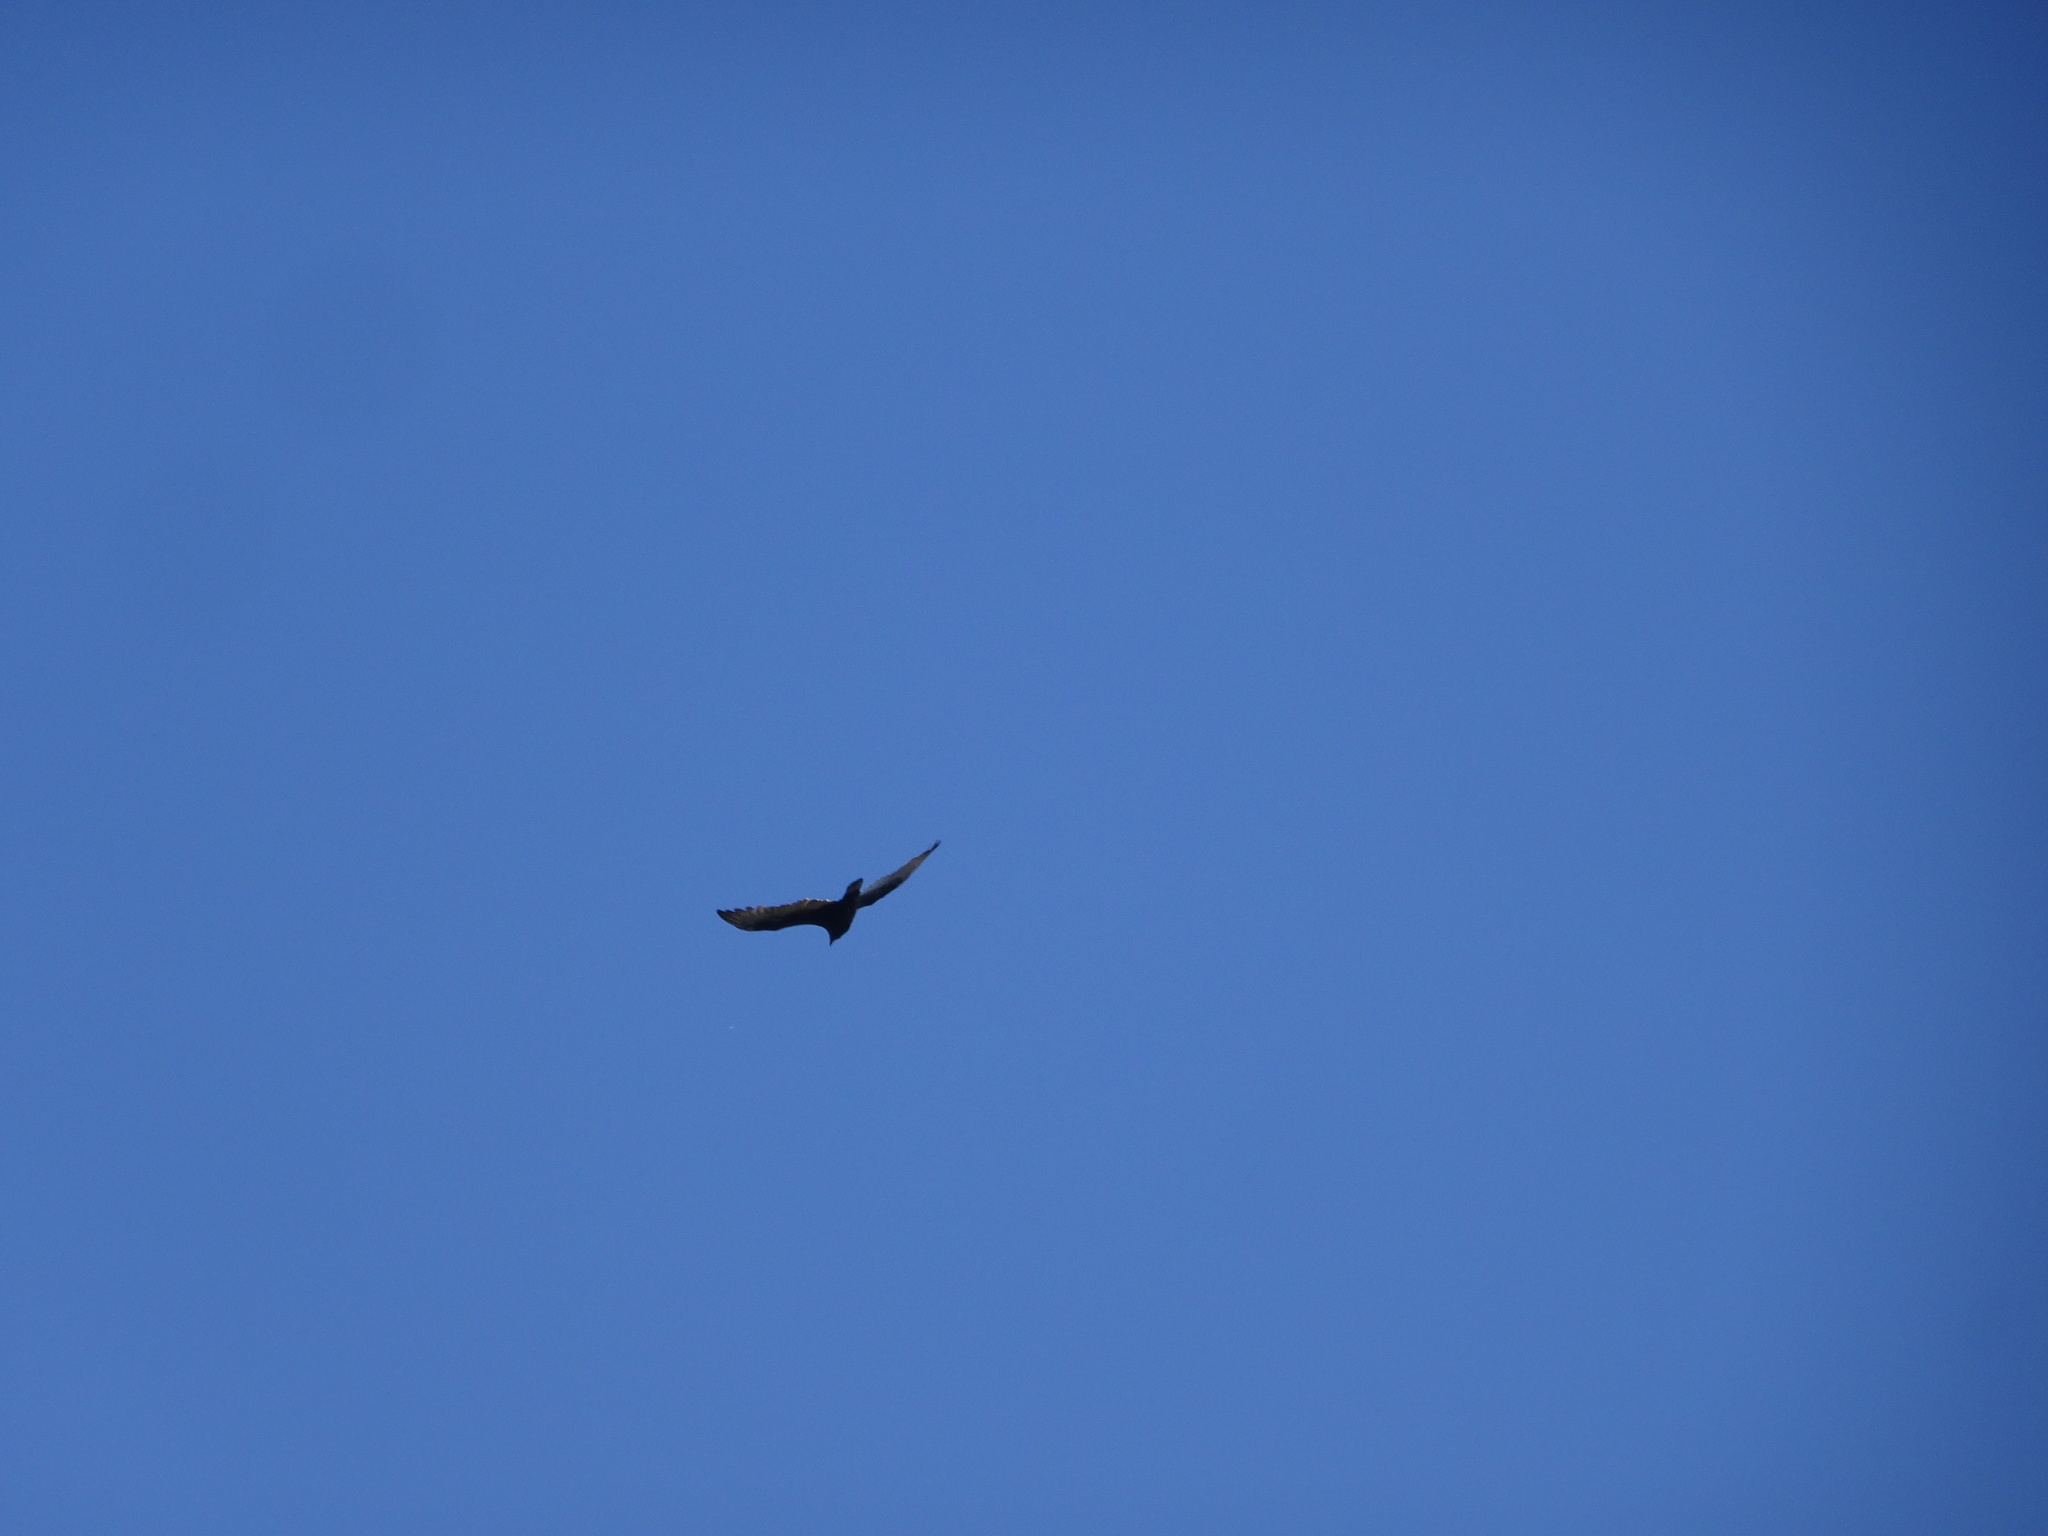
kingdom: Animalia
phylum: Chordata
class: Aves
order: Accipitriformes
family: Cathartidae
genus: Cathartes
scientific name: Cathartes aura
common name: Turkey vulture
